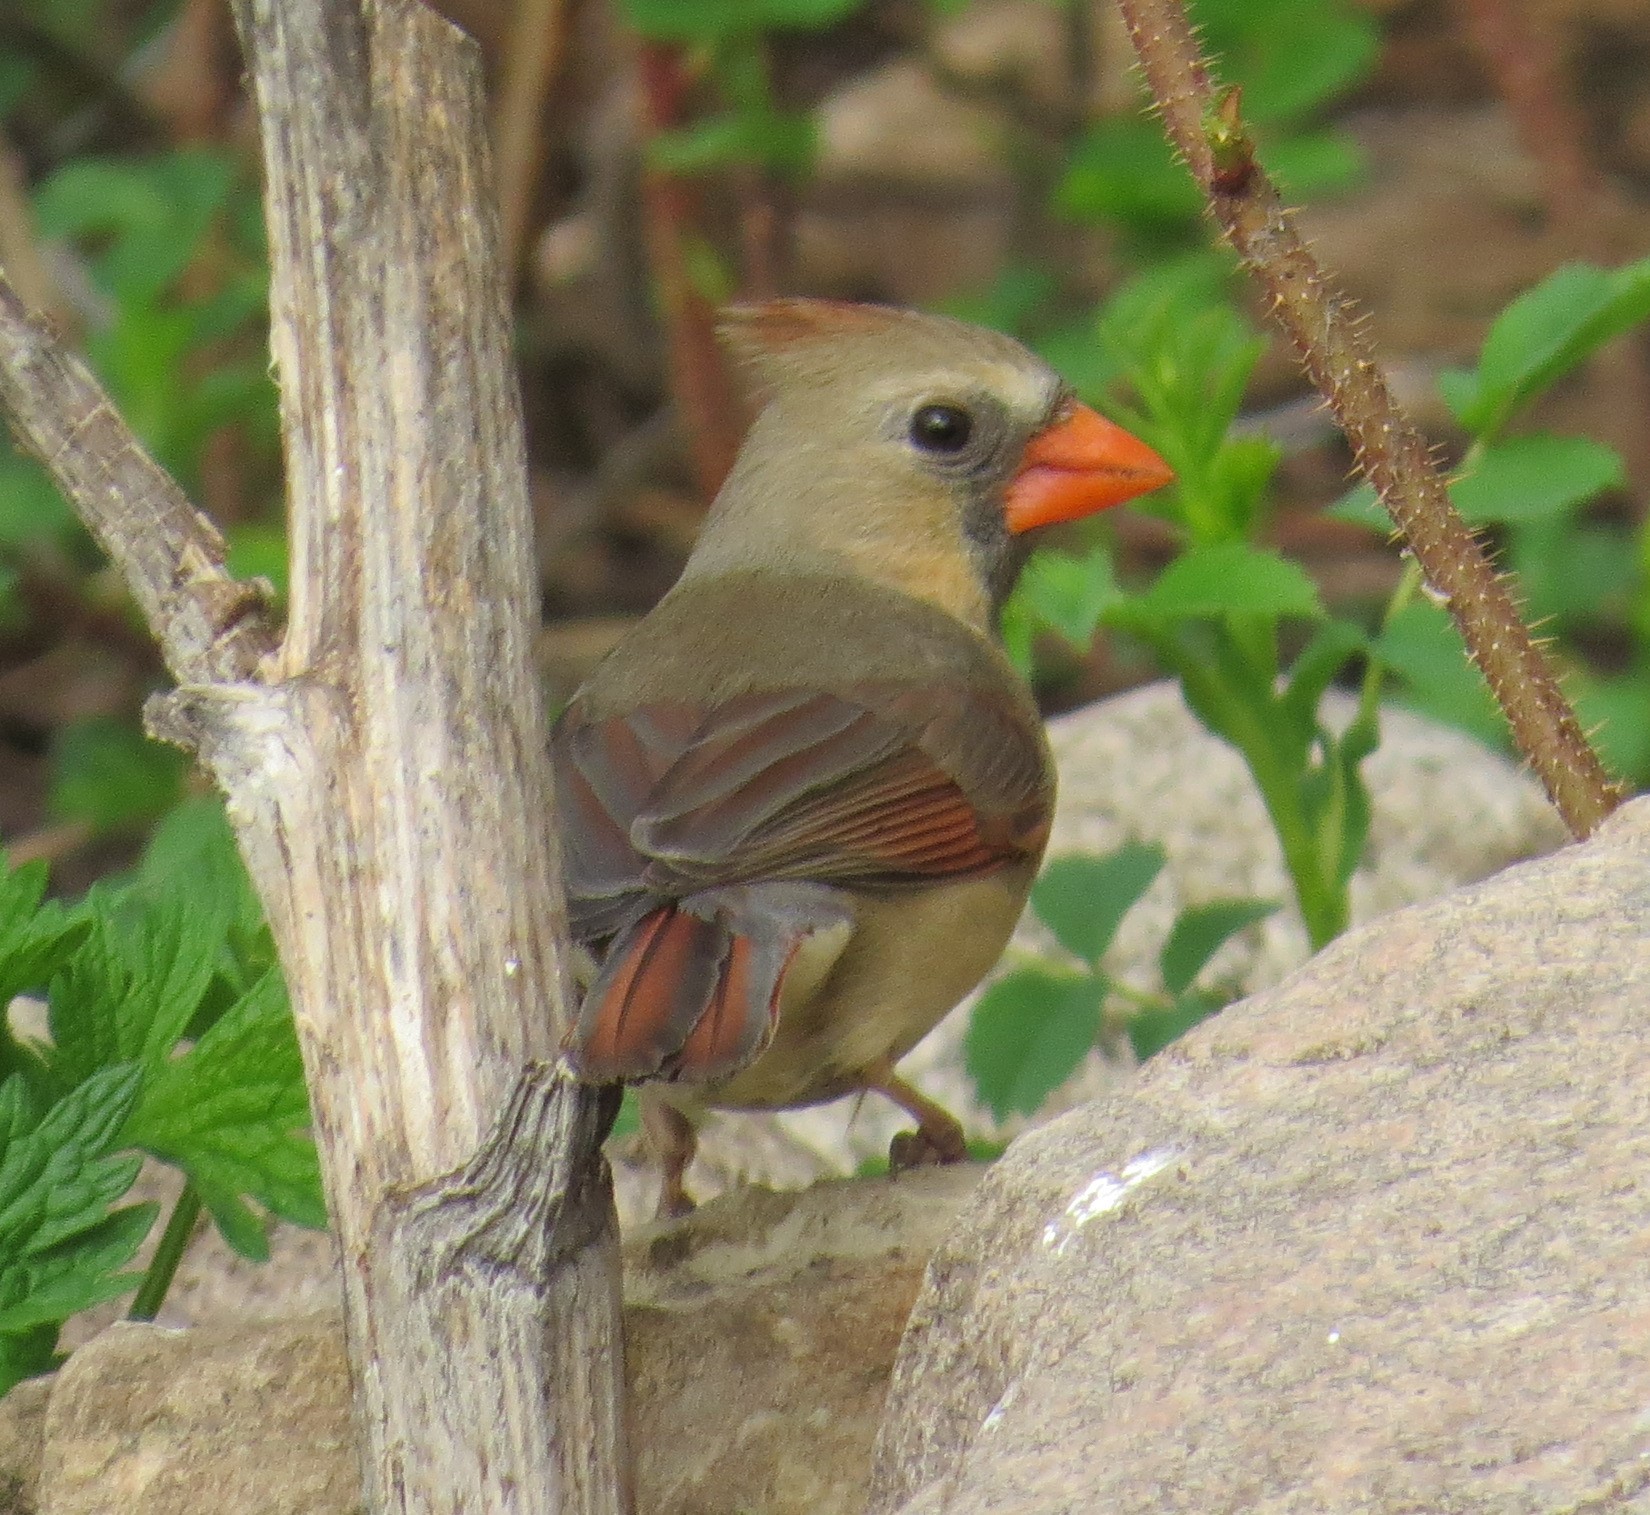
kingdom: Animalia
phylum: Chordata
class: Aves
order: Passeriformes
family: Cardinalidae
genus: Cardinalis
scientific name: Cardinalis cardinalis
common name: Northern cardinal
